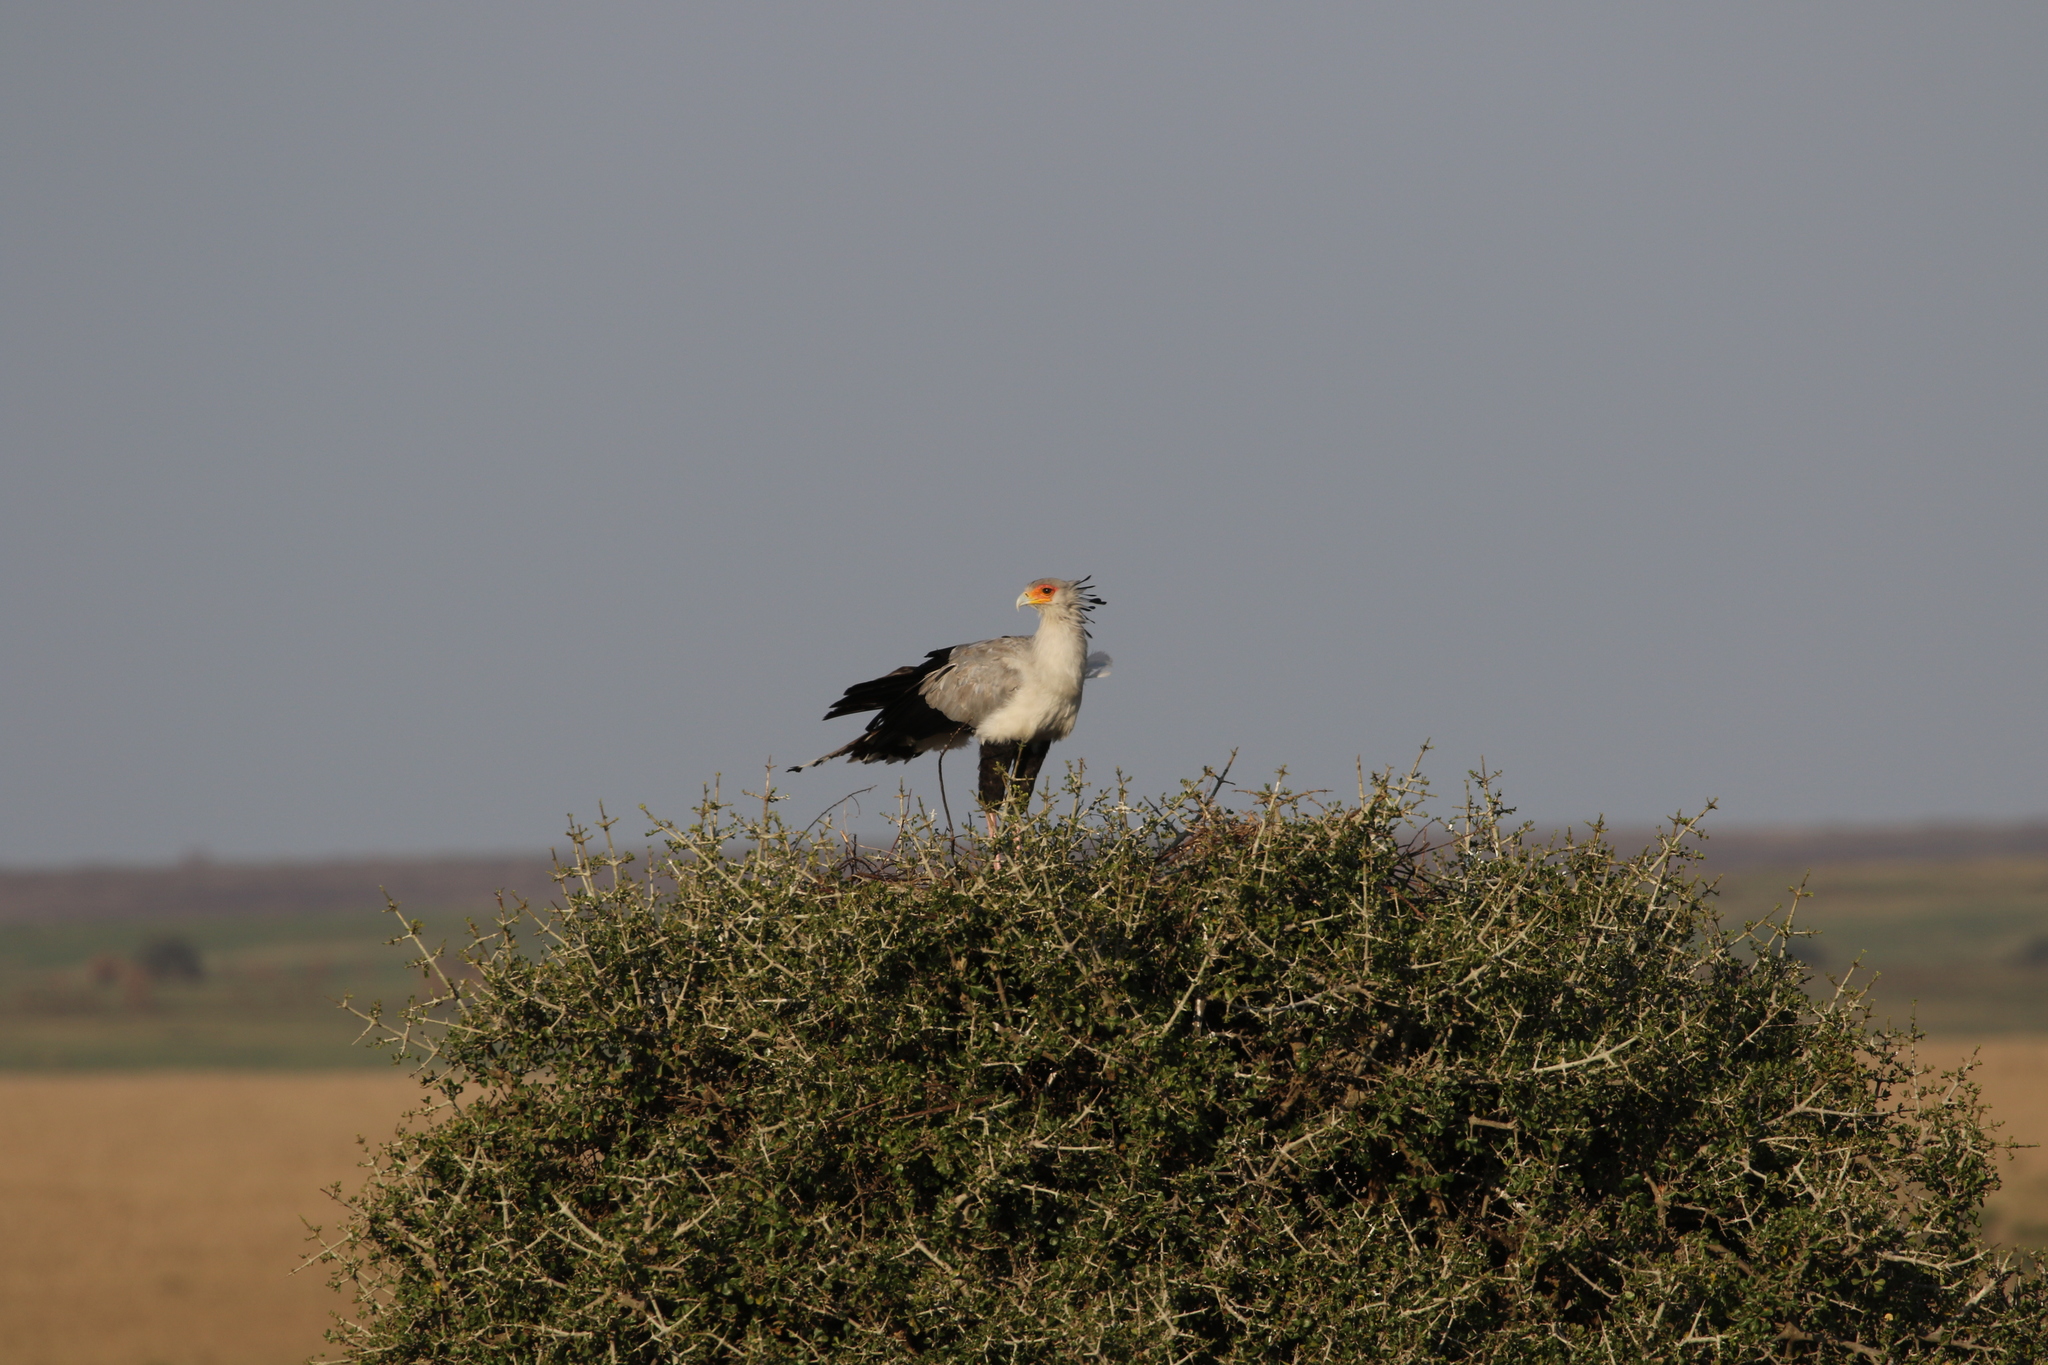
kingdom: Animalia
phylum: Chordata
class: Aves
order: Accipitriformes
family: Sagittariidae
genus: Sagittarius
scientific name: Sagittarius serpentarius
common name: Secretarybird
